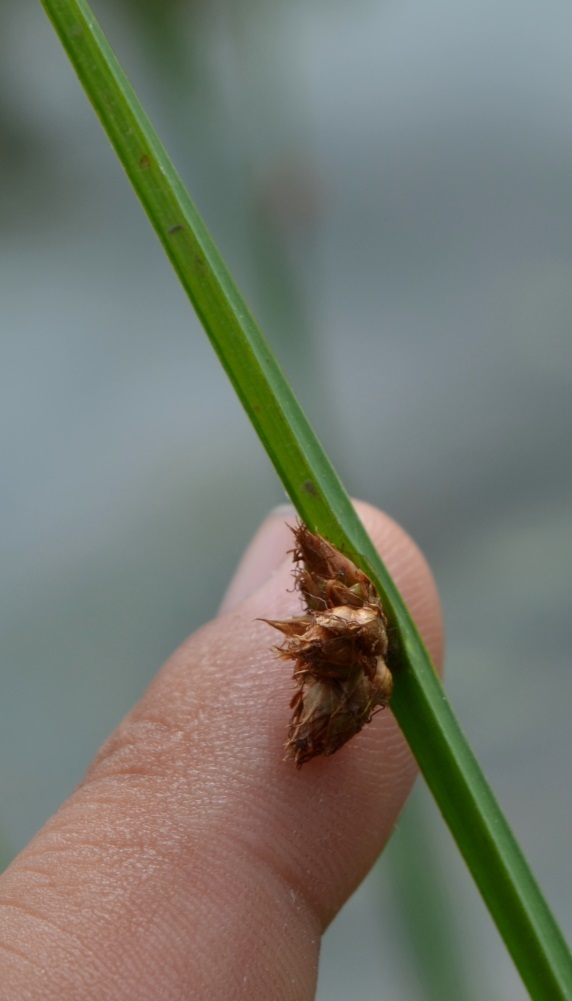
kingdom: Plantae
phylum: Tracheophyta
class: Liliopsida
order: Poales
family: Cyperaceae
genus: Schoenoplectus
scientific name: Schoenoplectus pungens
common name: Sharp club-rush
